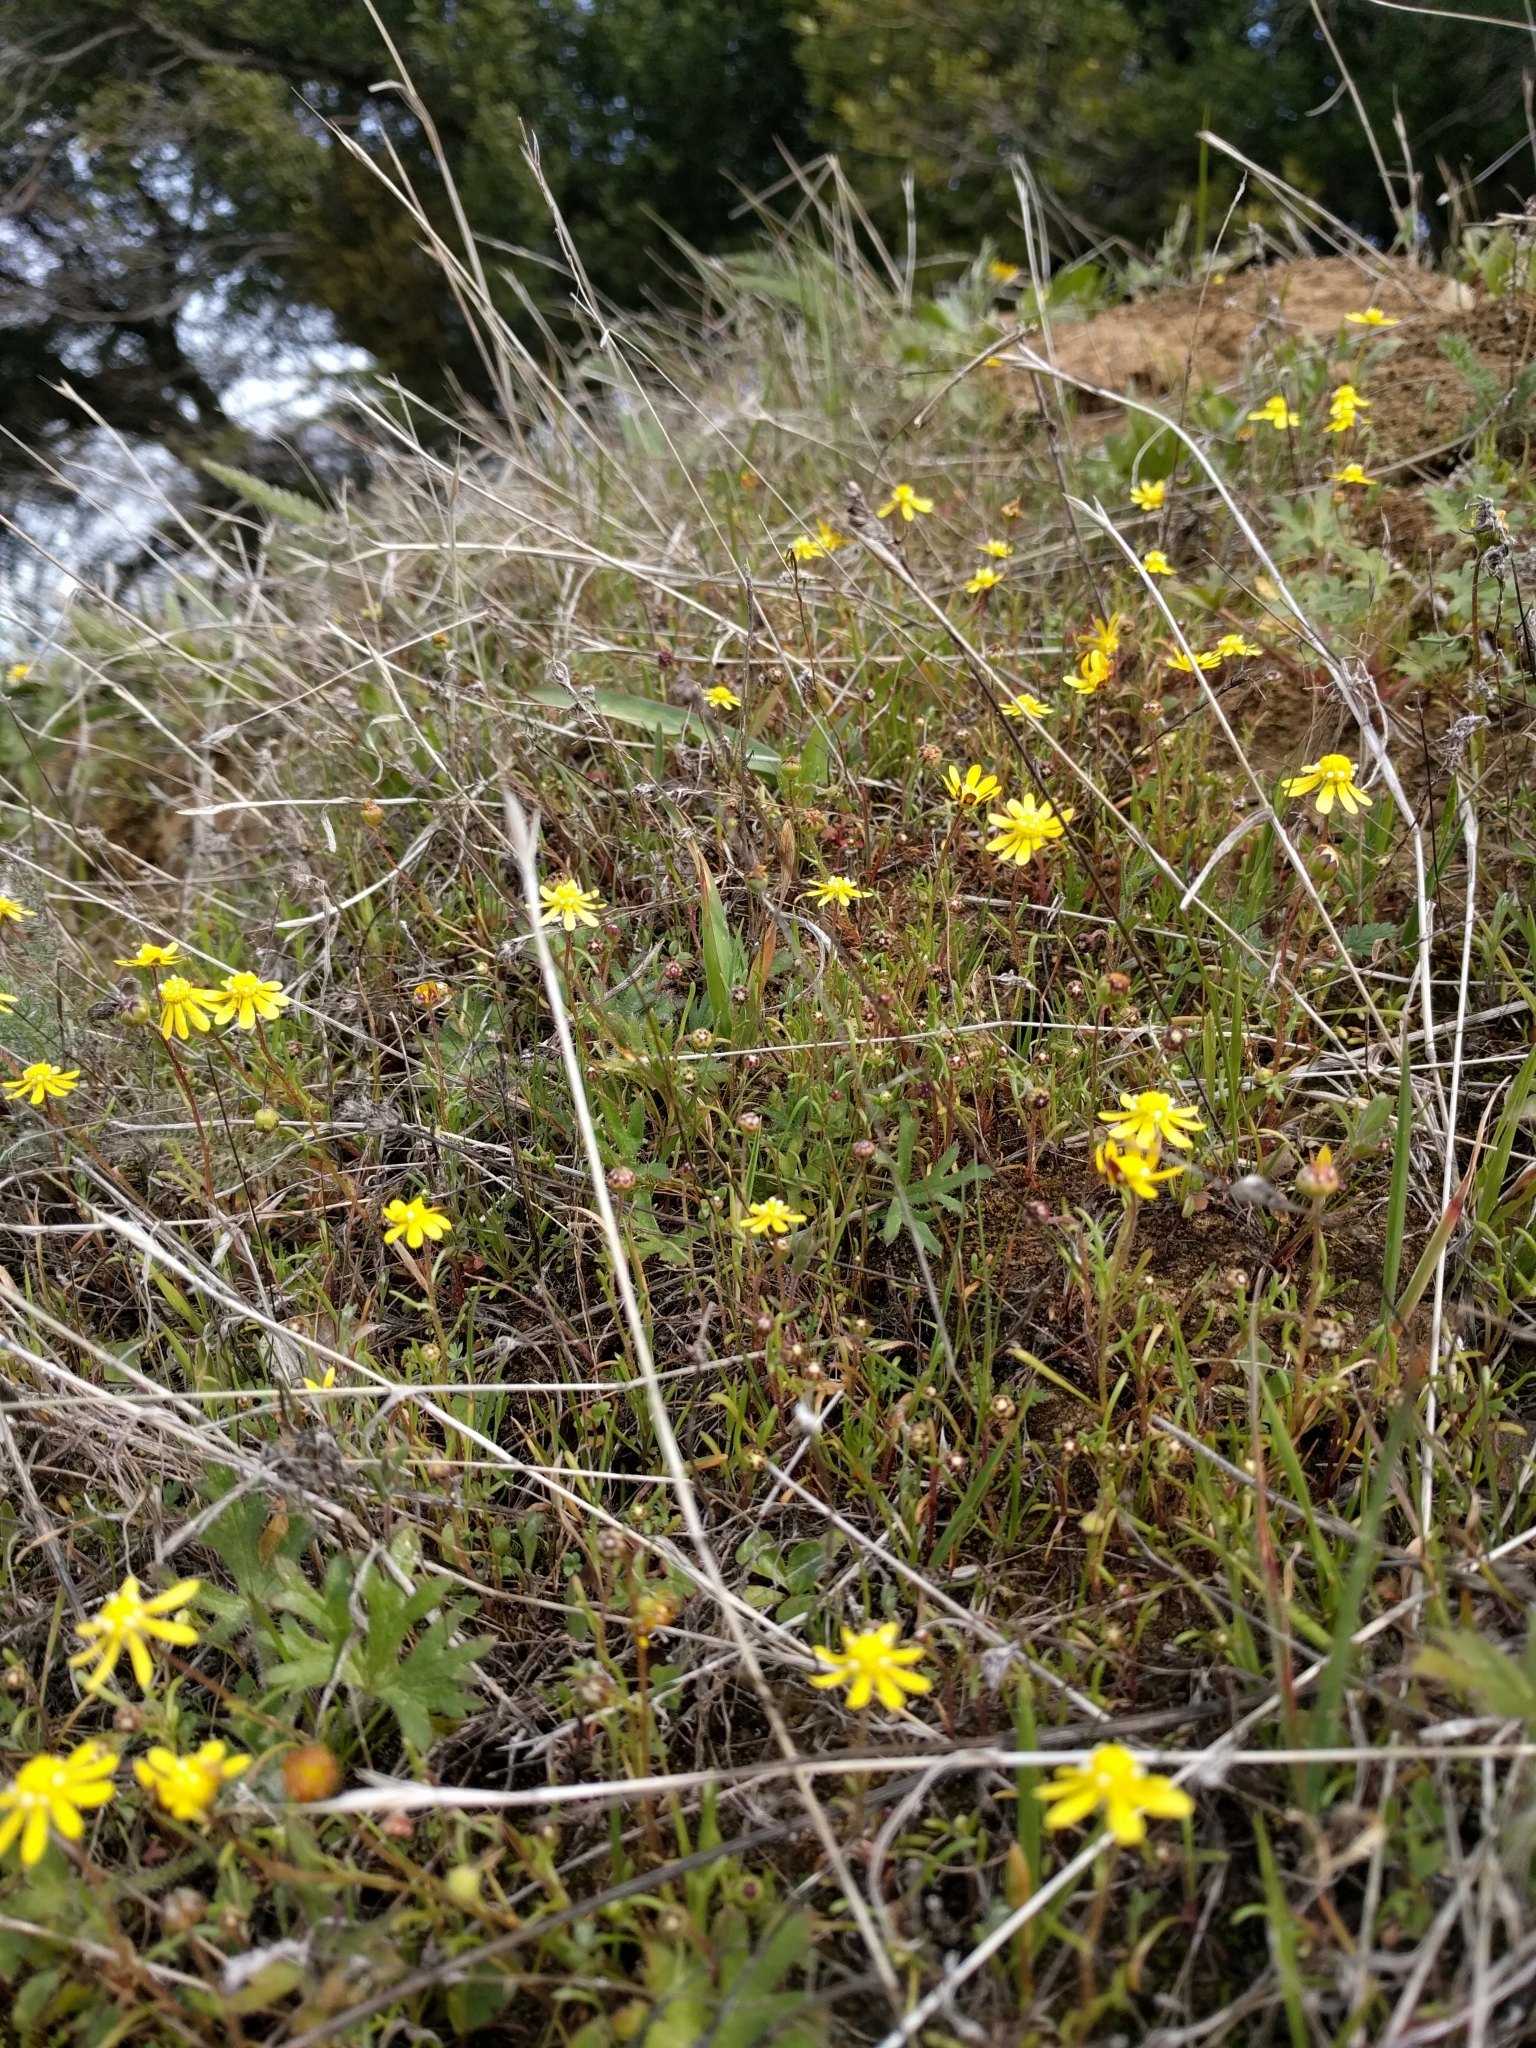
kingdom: Plantae
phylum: Tracheophyta
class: Magnoliopsida
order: Asterales
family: Asteraceae
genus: Blennosperma
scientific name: Blennosperma nanum
